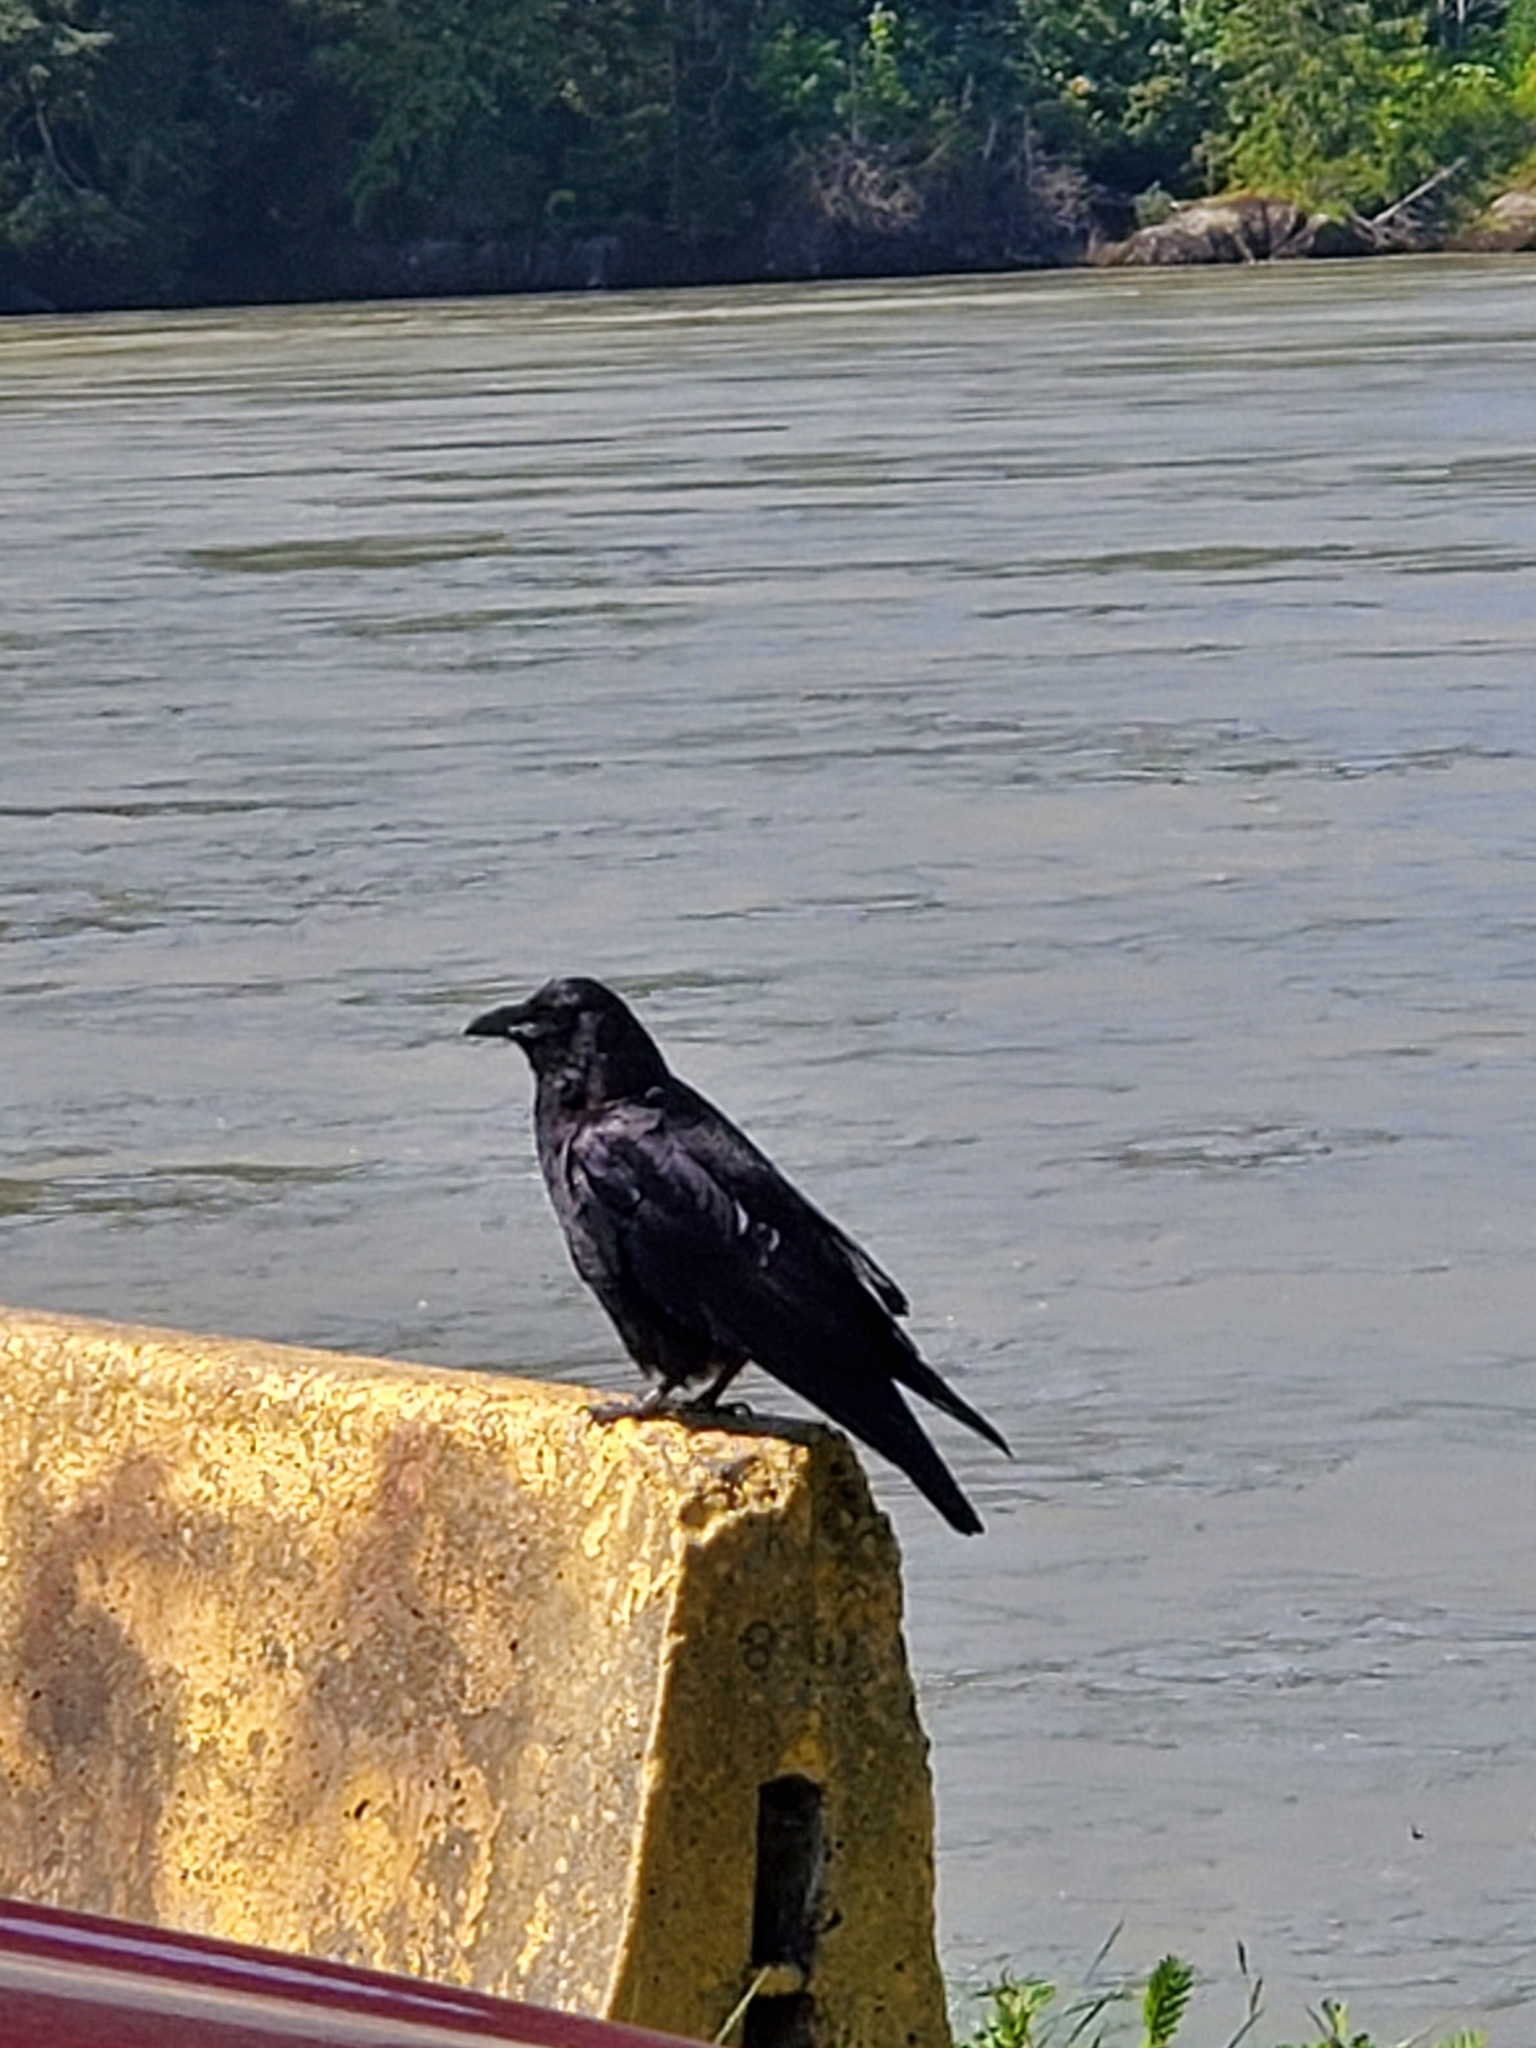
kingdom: Animalia
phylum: Chordata
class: Aves
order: Passeriformes
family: Corvidae
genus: Corvus
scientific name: Corvus brachyrhynchos
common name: American crow
